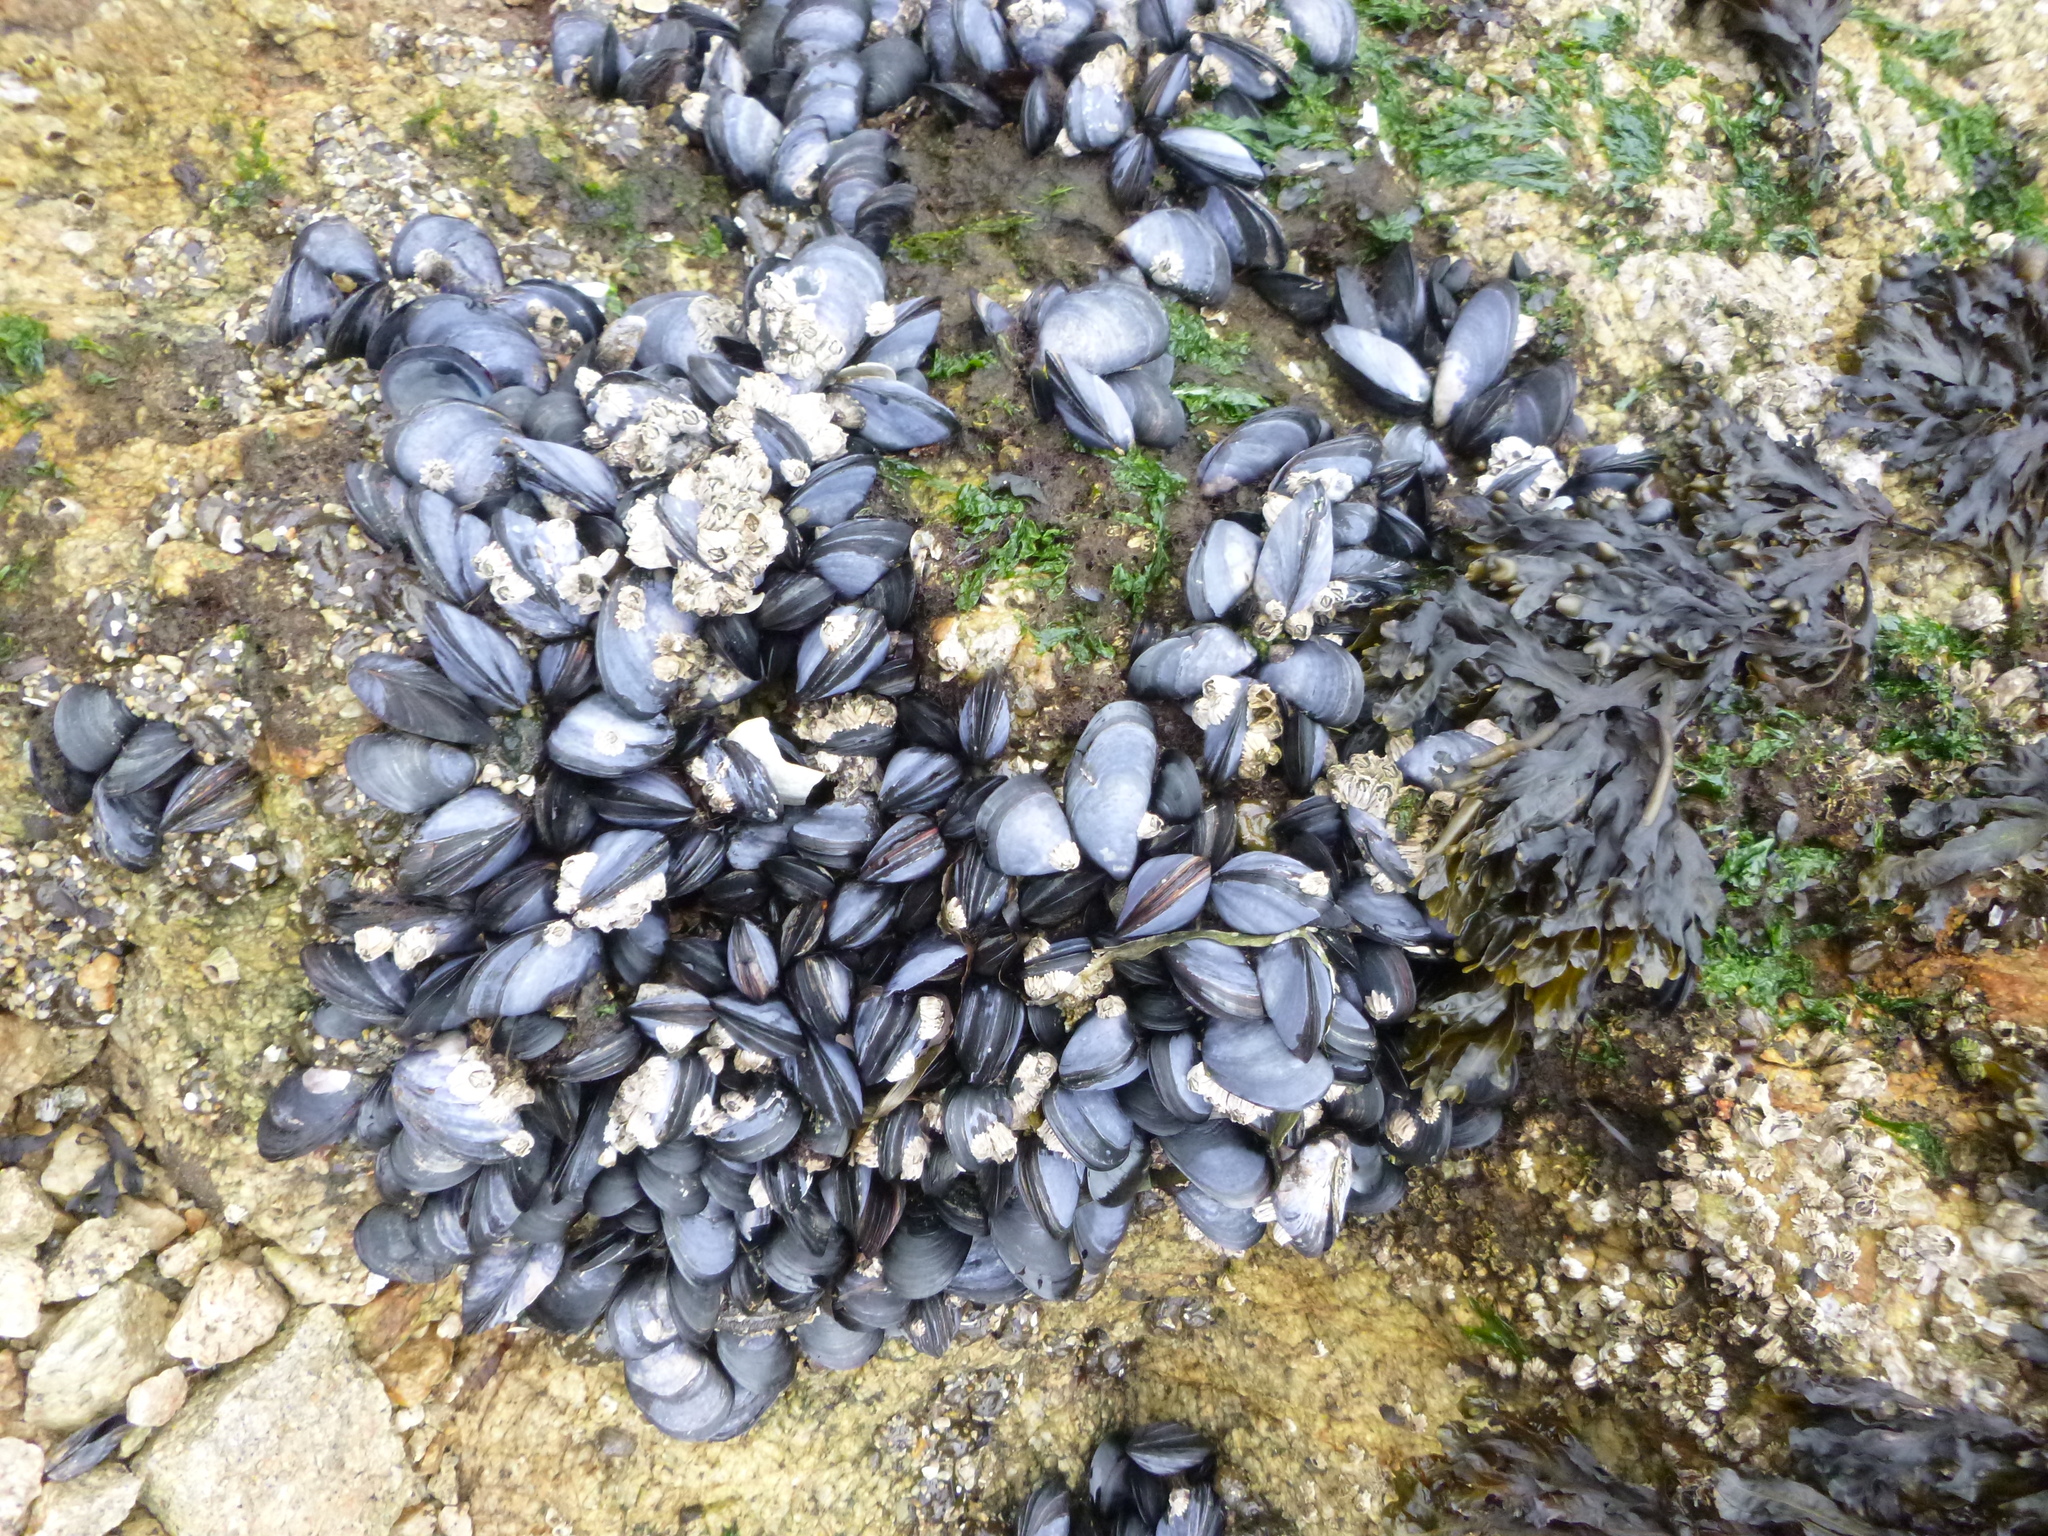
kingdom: Animalia
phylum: Mollusca
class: Bivalvia
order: Mytilida
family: Mytilidae
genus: Mytilus
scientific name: Mytilus californianus
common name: California mussel
